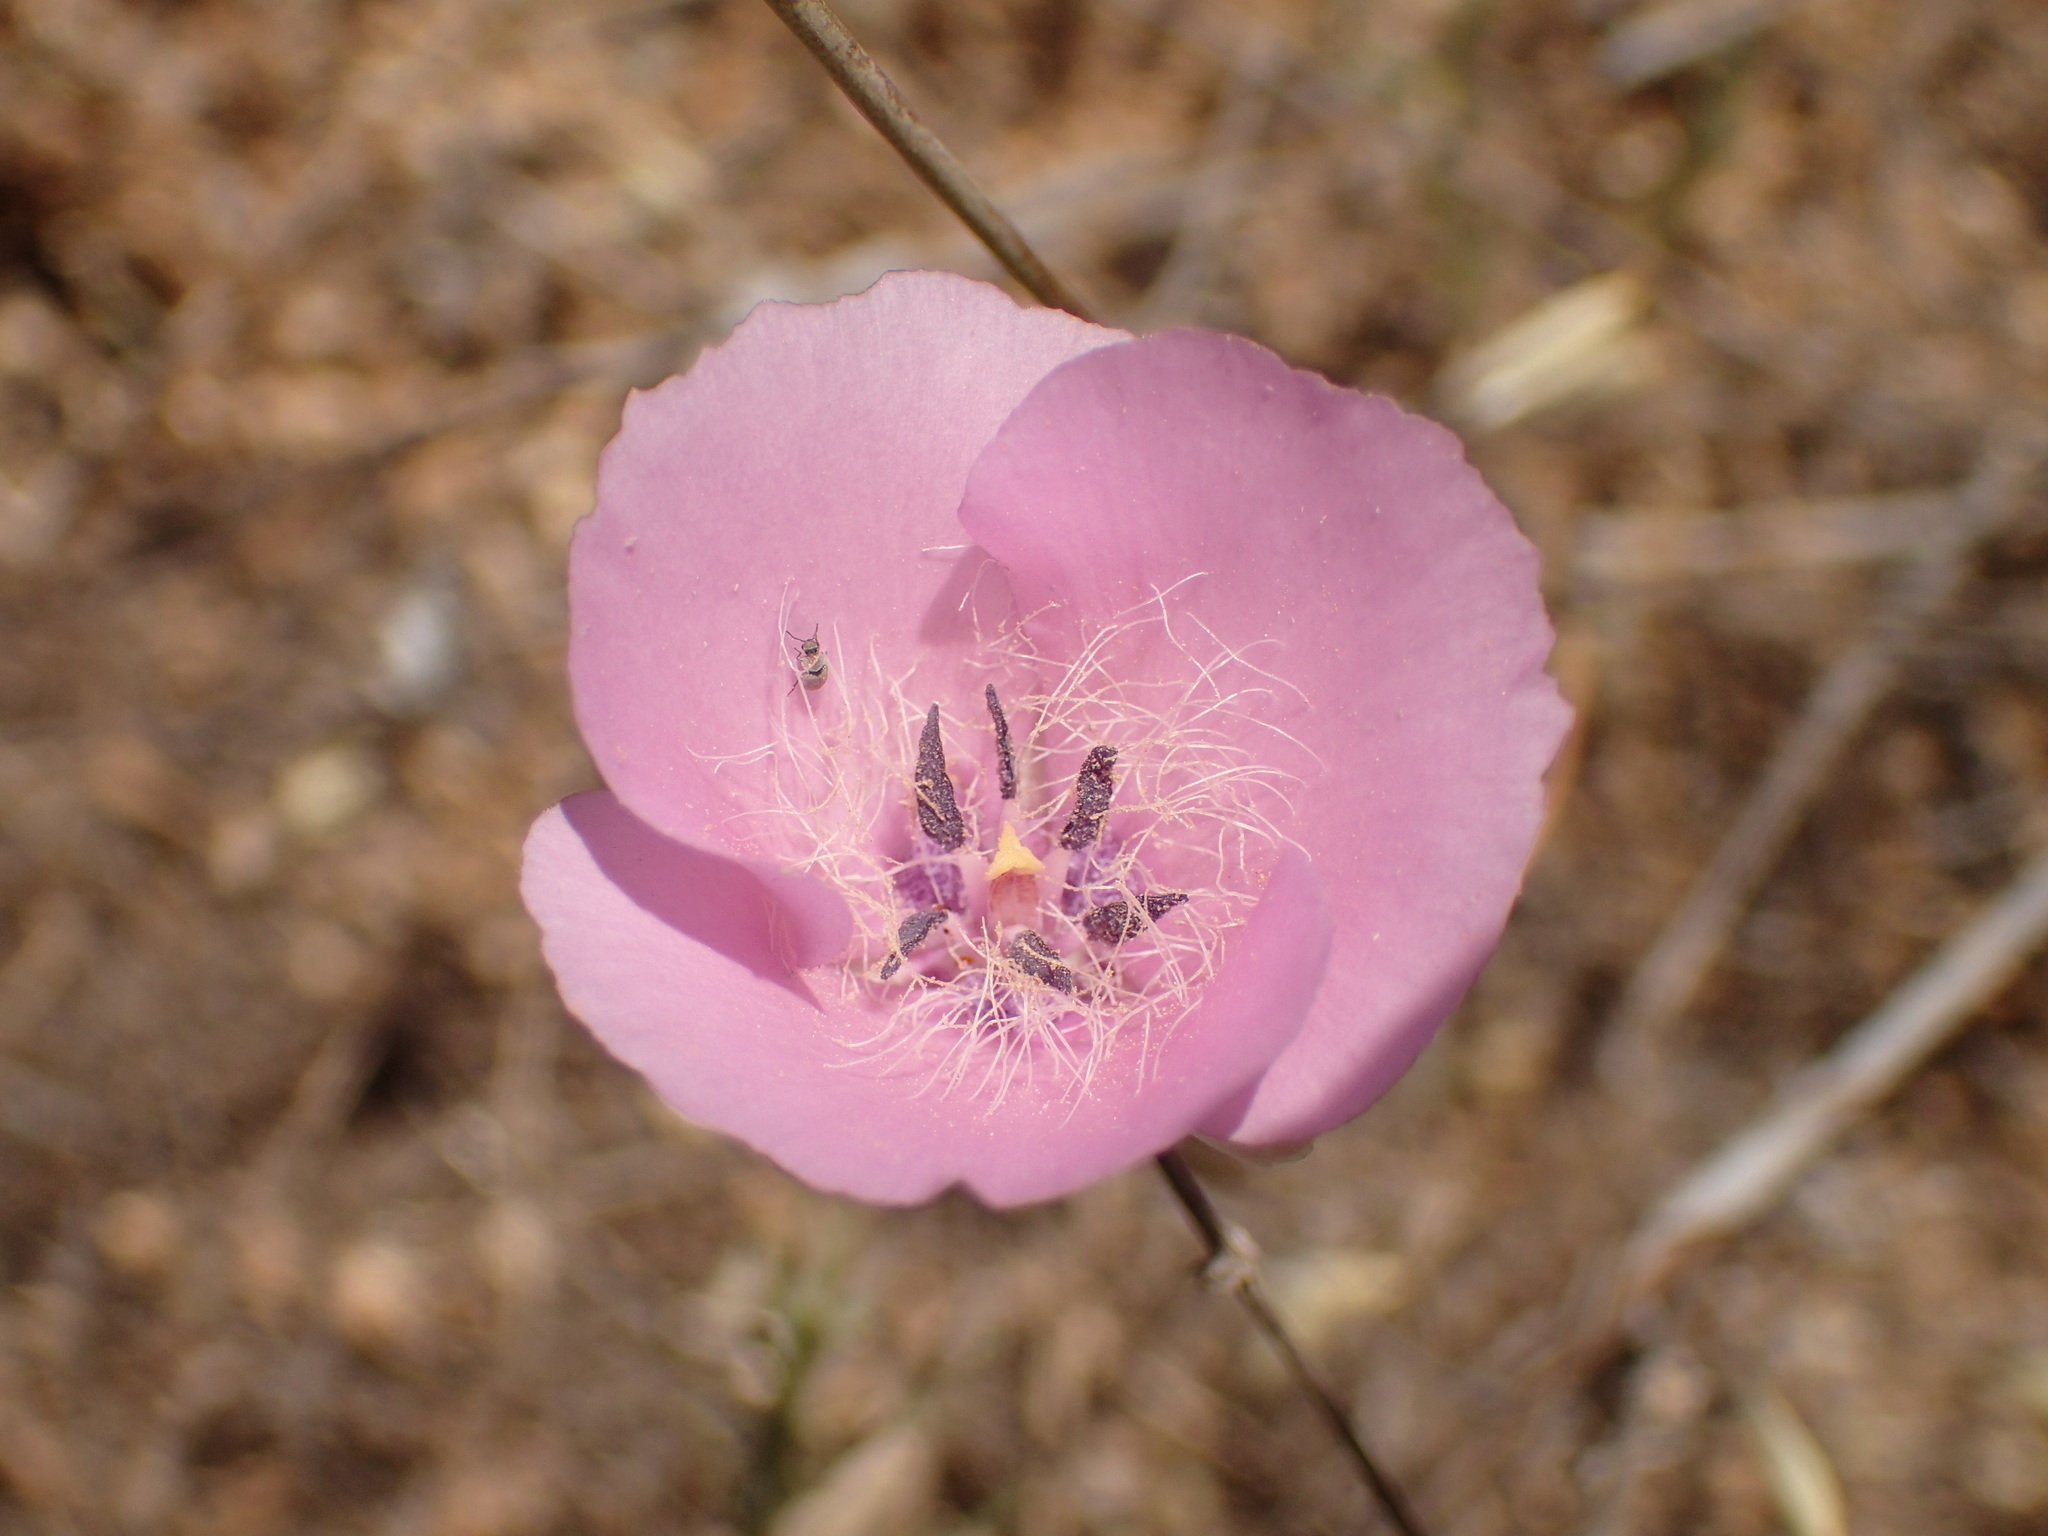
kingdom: Plantae
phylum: Tracheophyta
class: Liliopsida
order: Liliales
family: Liliaceae
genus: Calochortus
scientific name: Calochortus splendens
